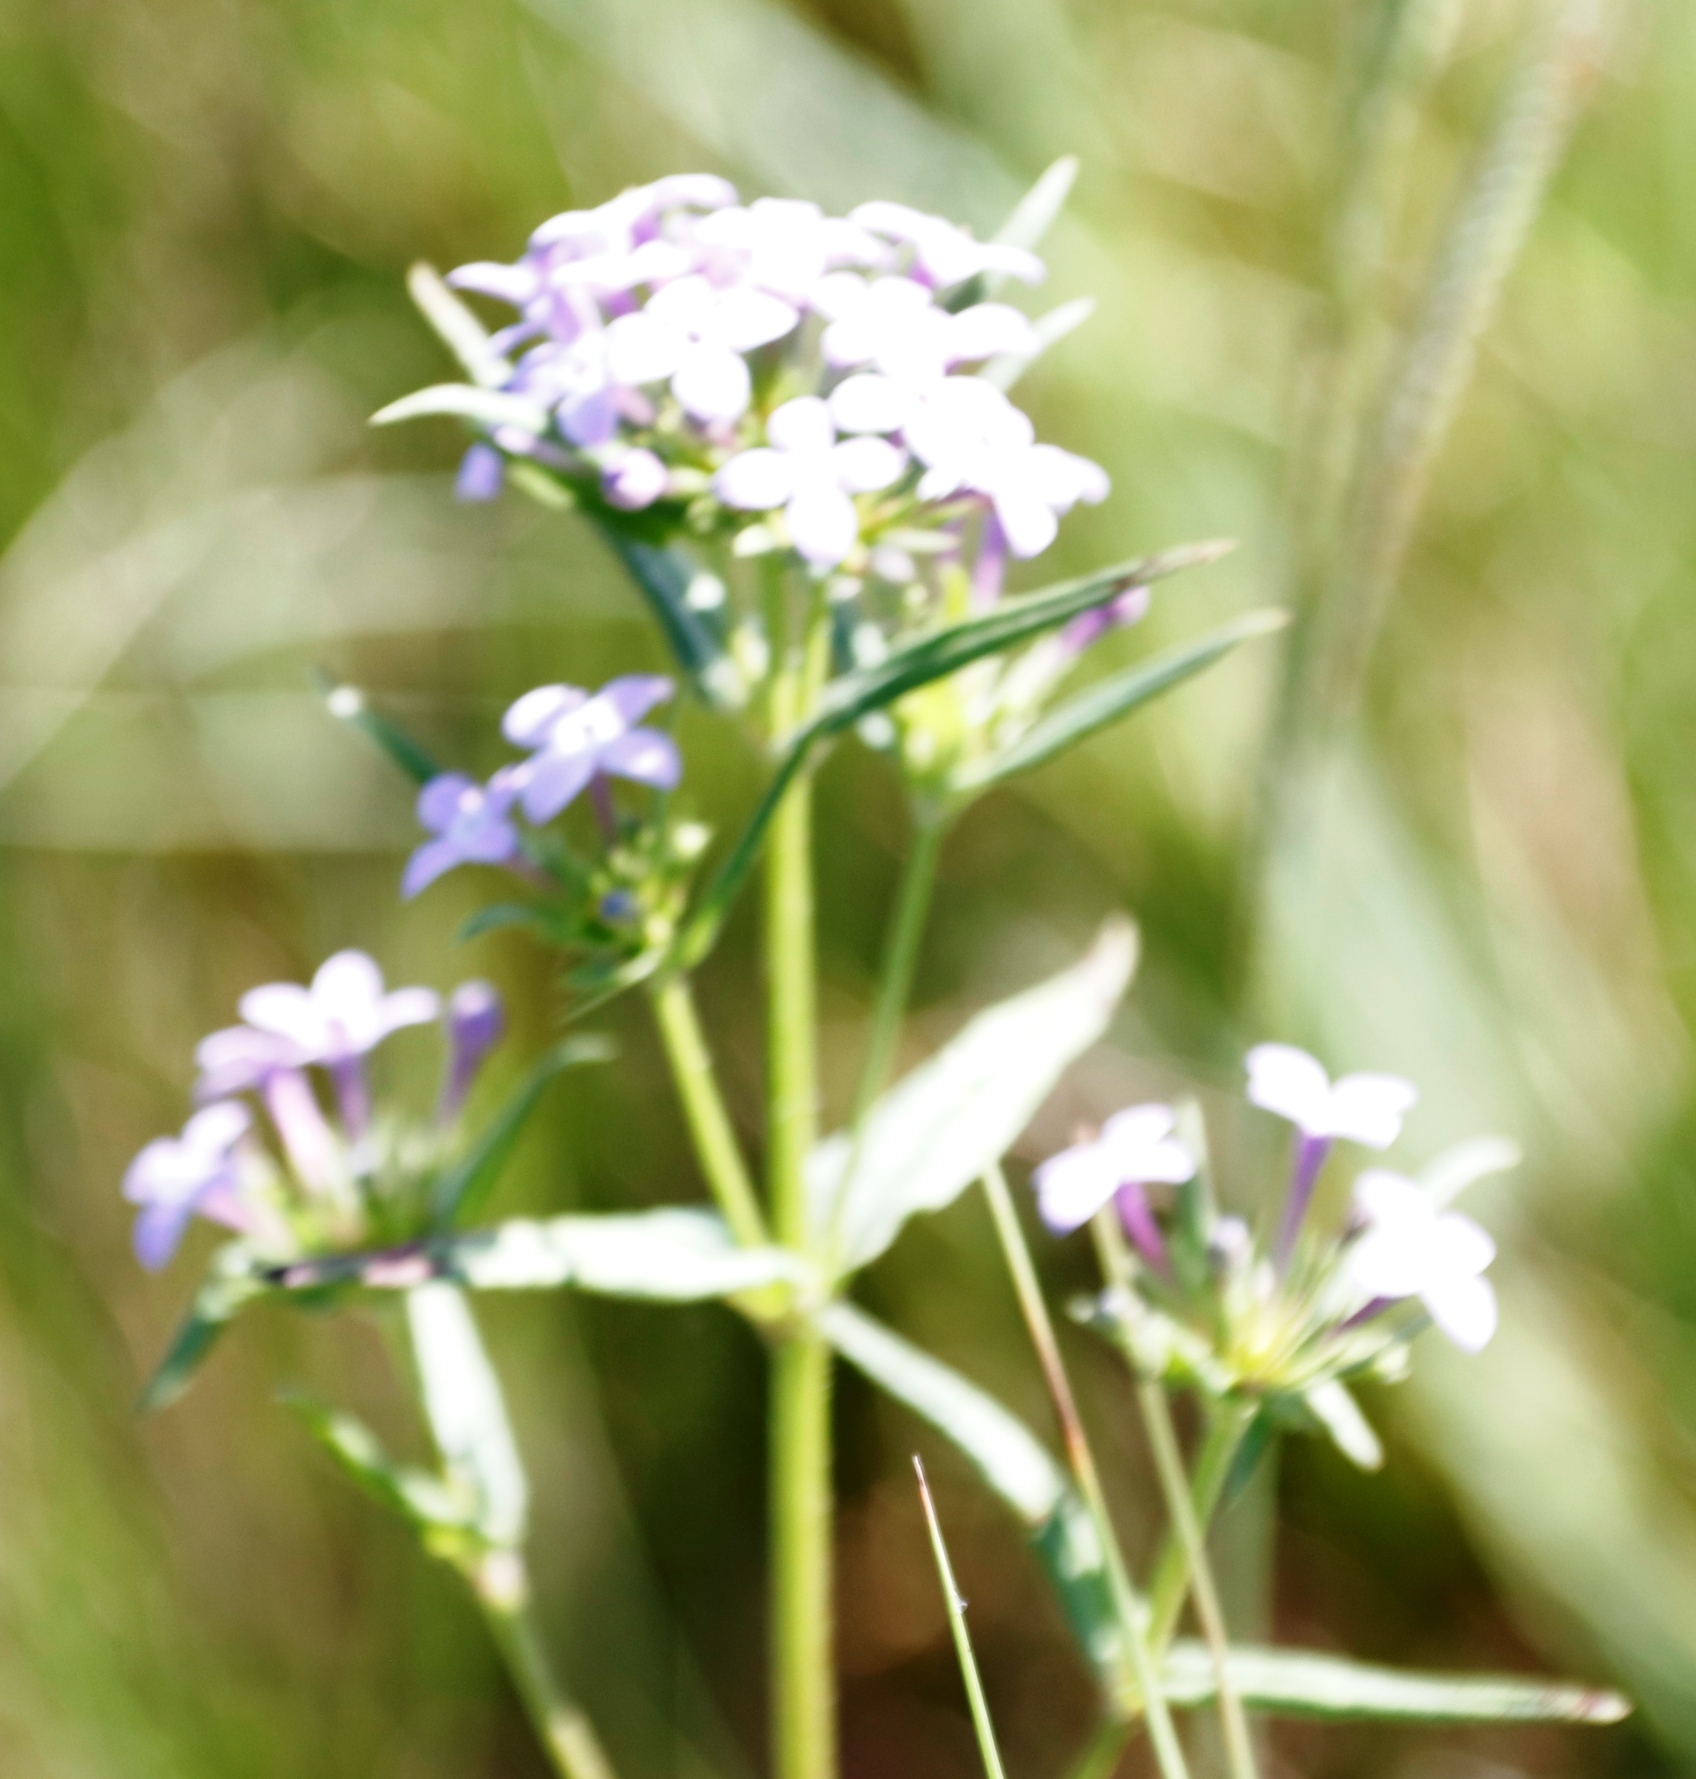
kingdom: Plantae
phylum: Tracheophyta
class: Magnoliopsida
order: Gentianales
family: Rubiaceae
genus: Conostomium
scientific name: Conostomium natalense
